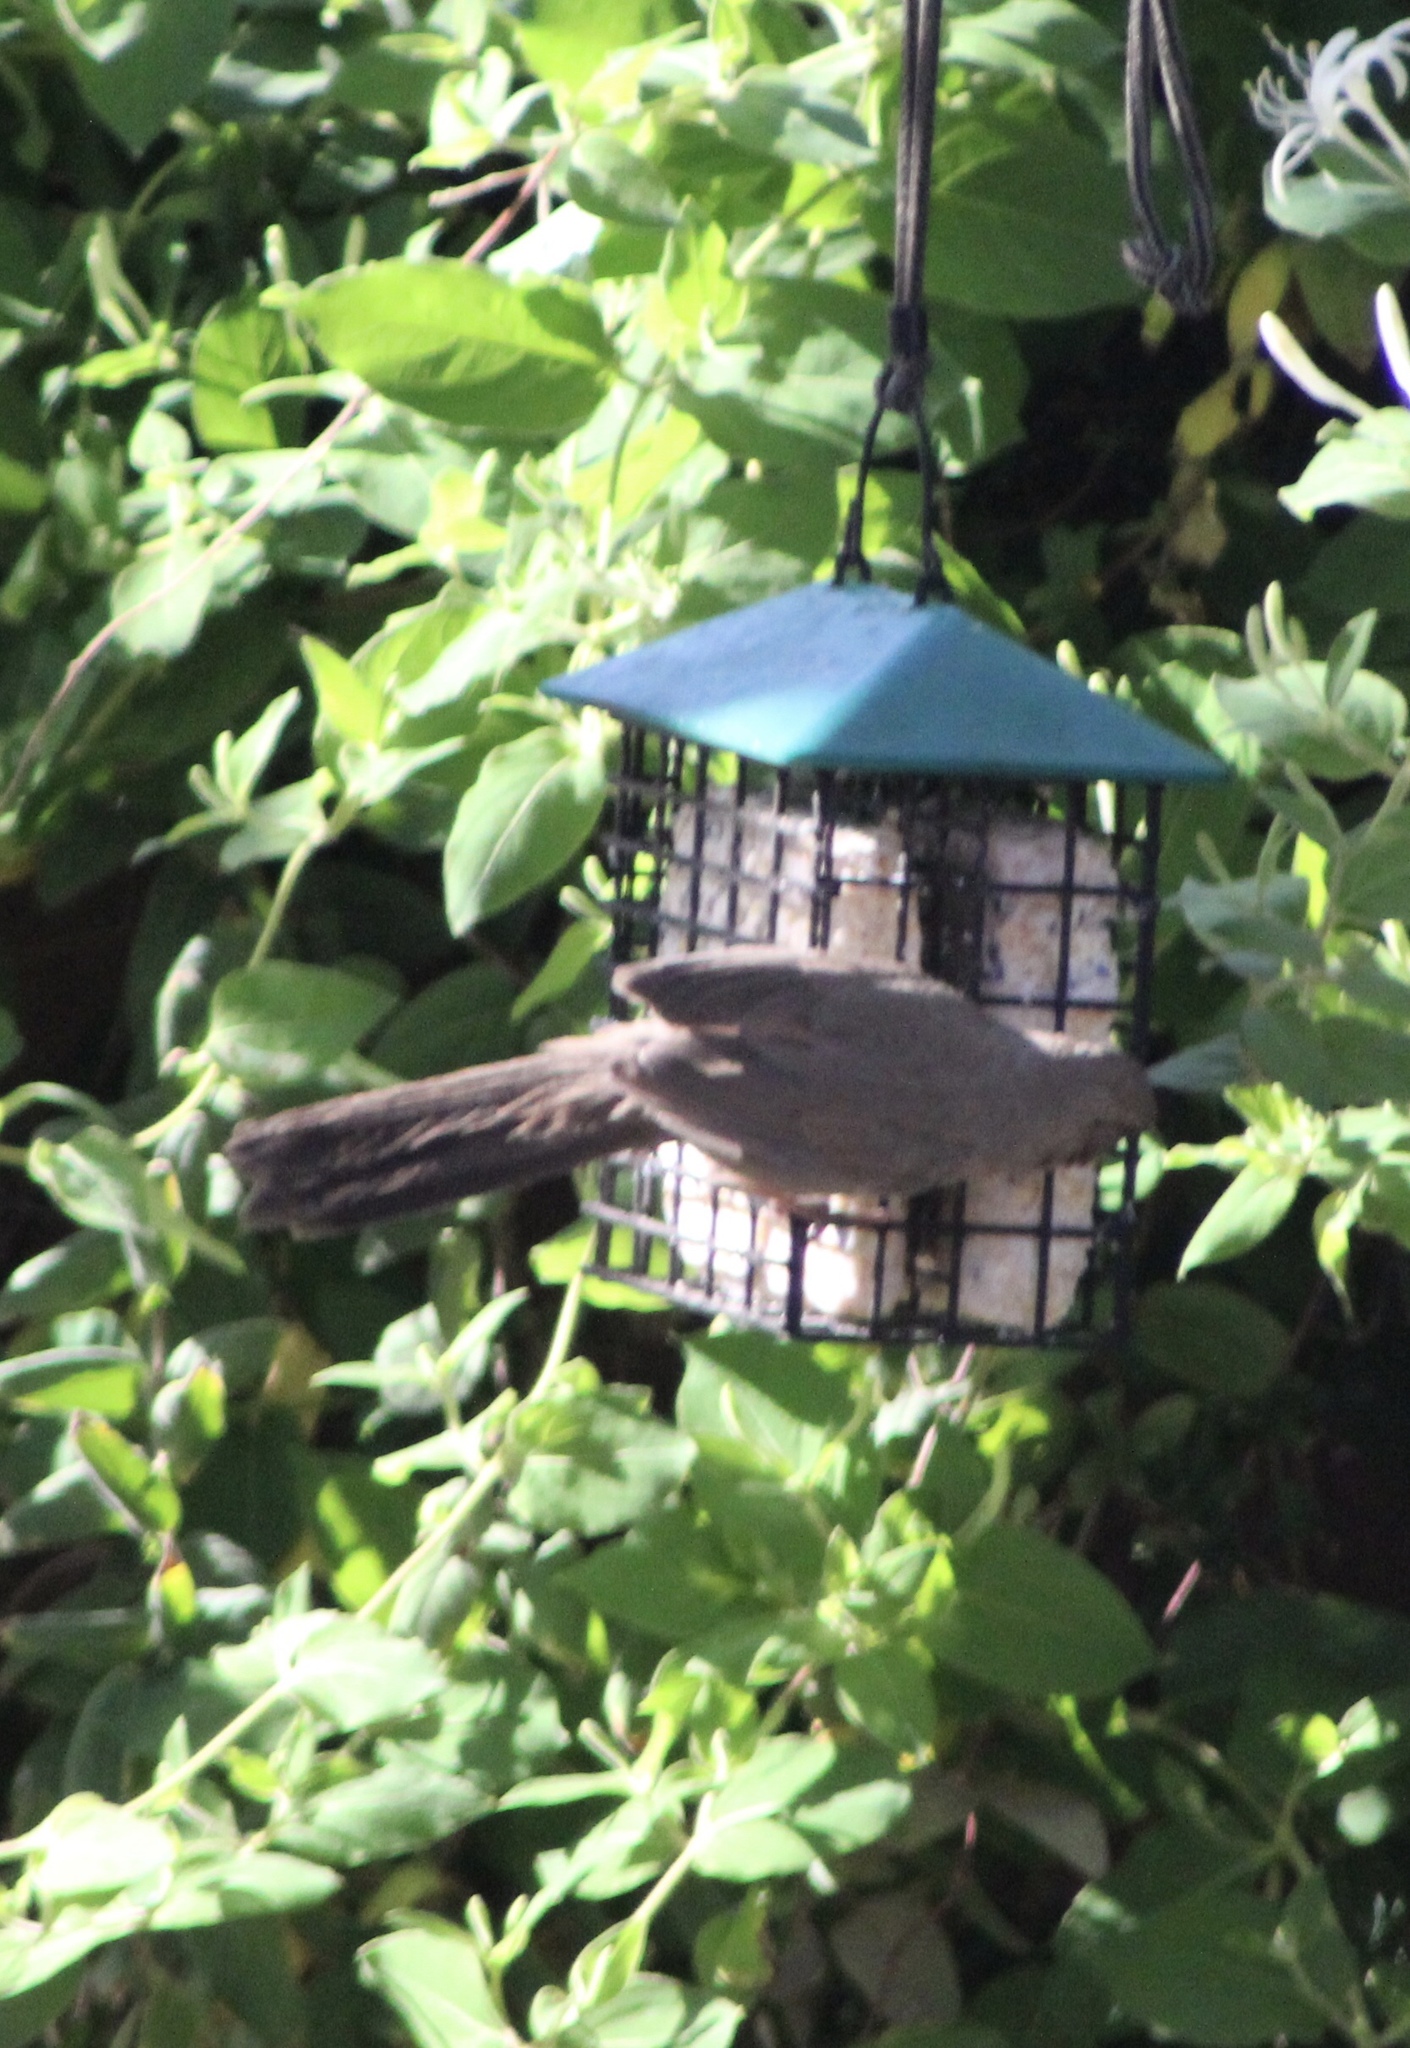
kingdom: Animalia
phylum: Chordata
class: Aves
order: Passeriformes
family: Passerellidae
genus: Melozone
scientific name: Melozone aberti
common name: Abert's towhee
